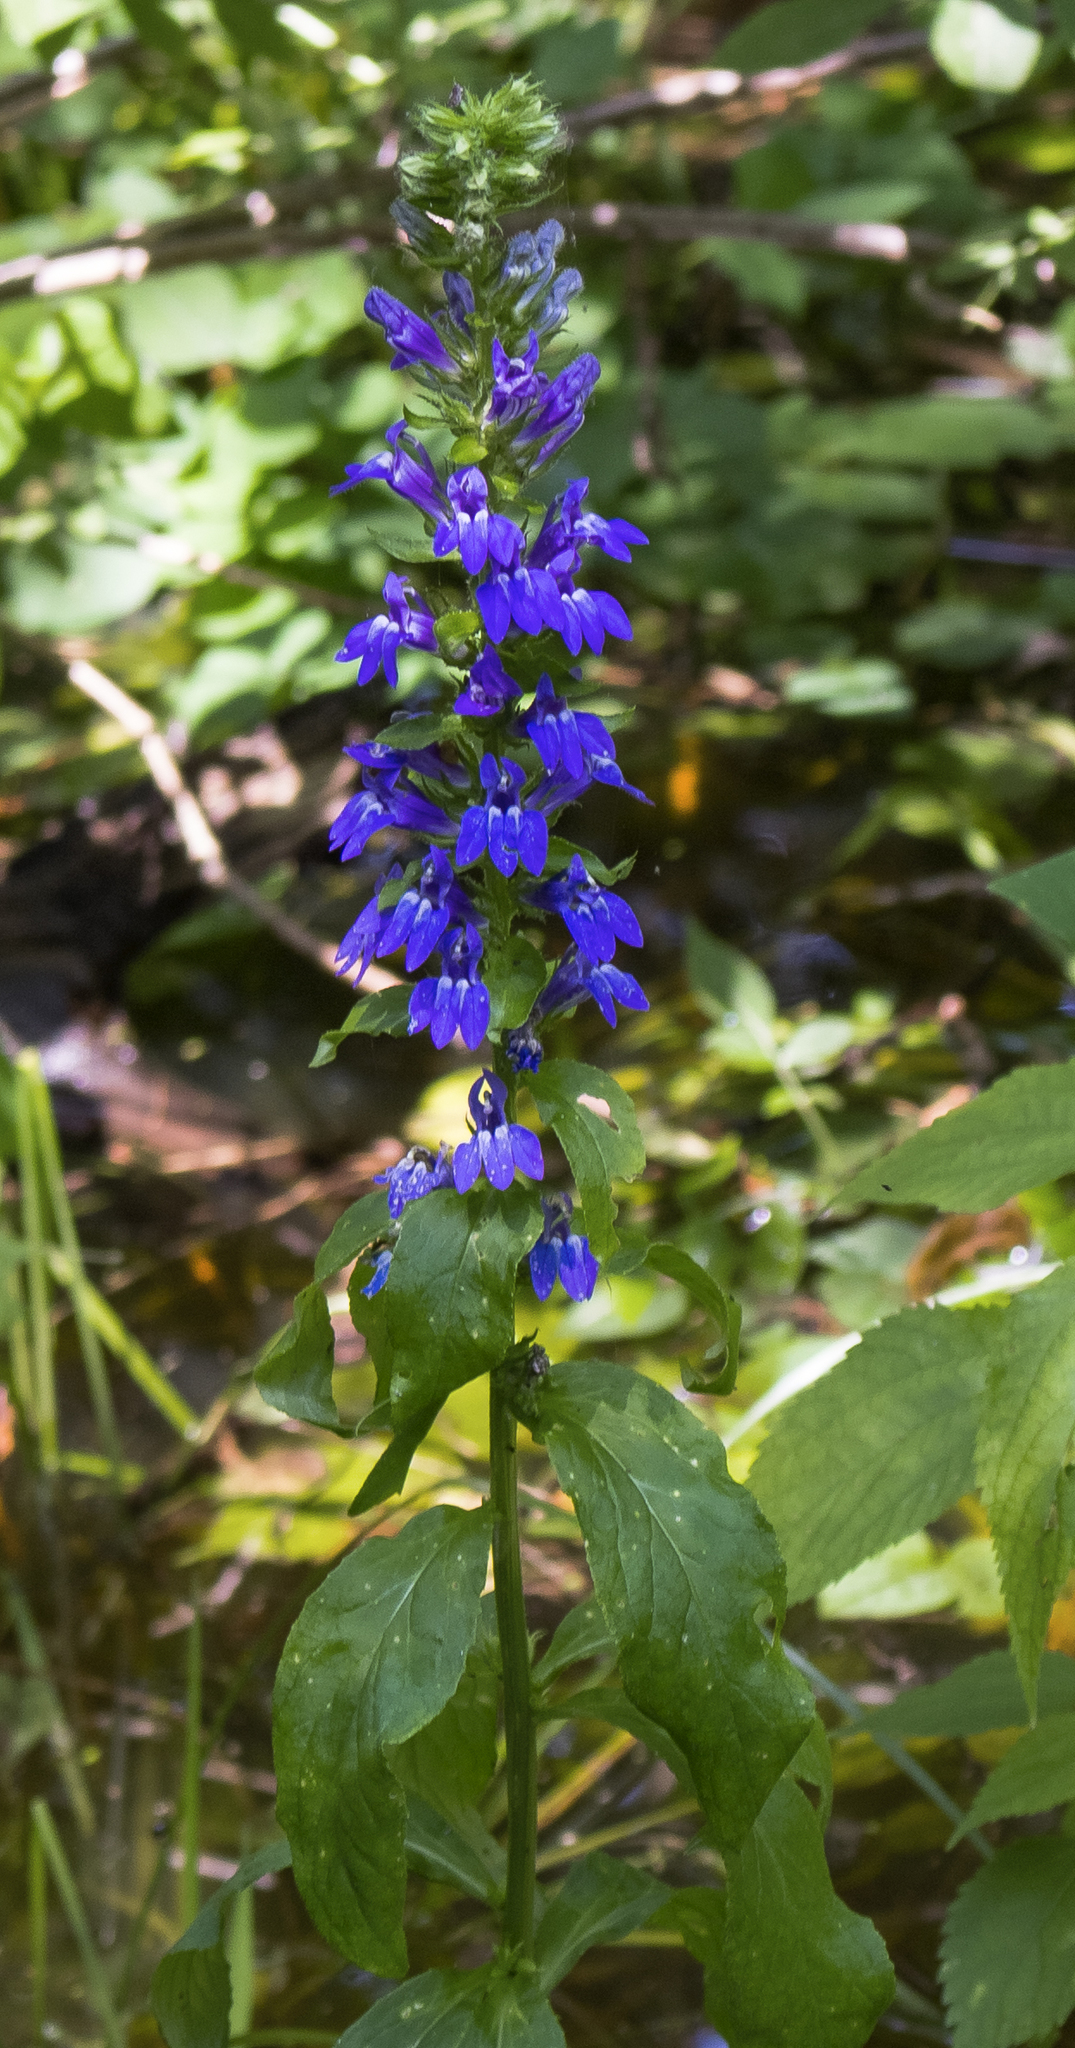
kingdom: Plantae
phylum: Tracheophyta
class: Magnoliopsida
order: Asterales
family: Campanulaceae
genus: Lobelia
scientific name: Lobelia siphilitica
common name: Great lobelia
